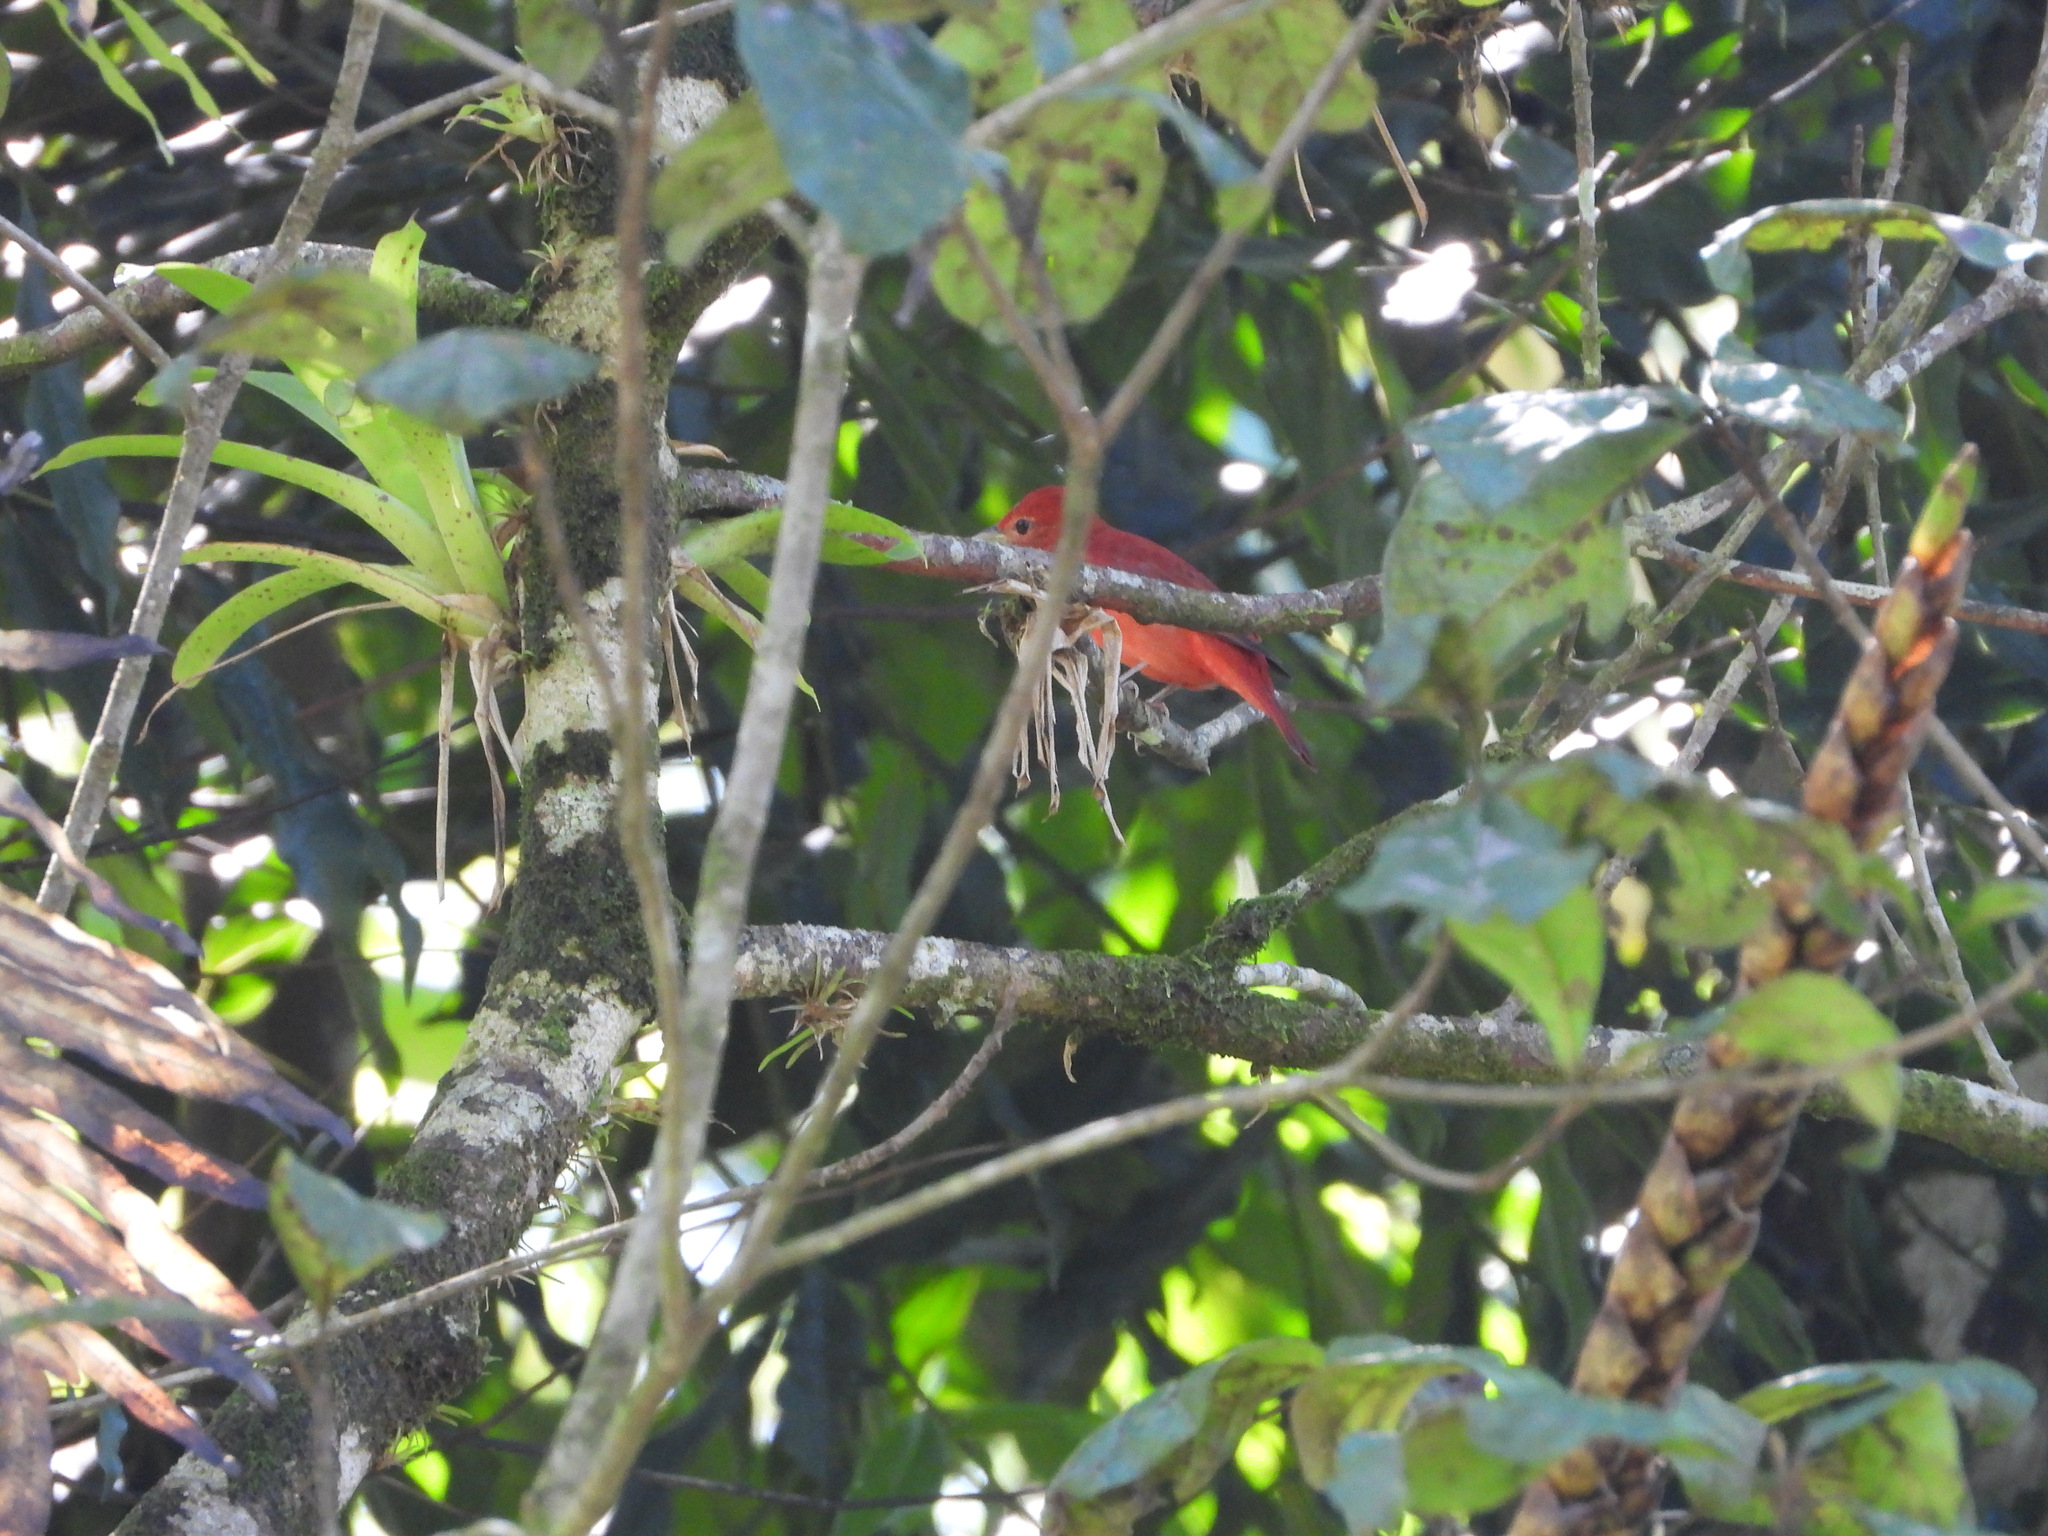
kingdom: Animalia
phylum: Chordata
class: Aves
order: Passeriformes
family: Cardinalidae
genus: Piranga
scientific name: Piranga rubra
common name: Summer tanager
